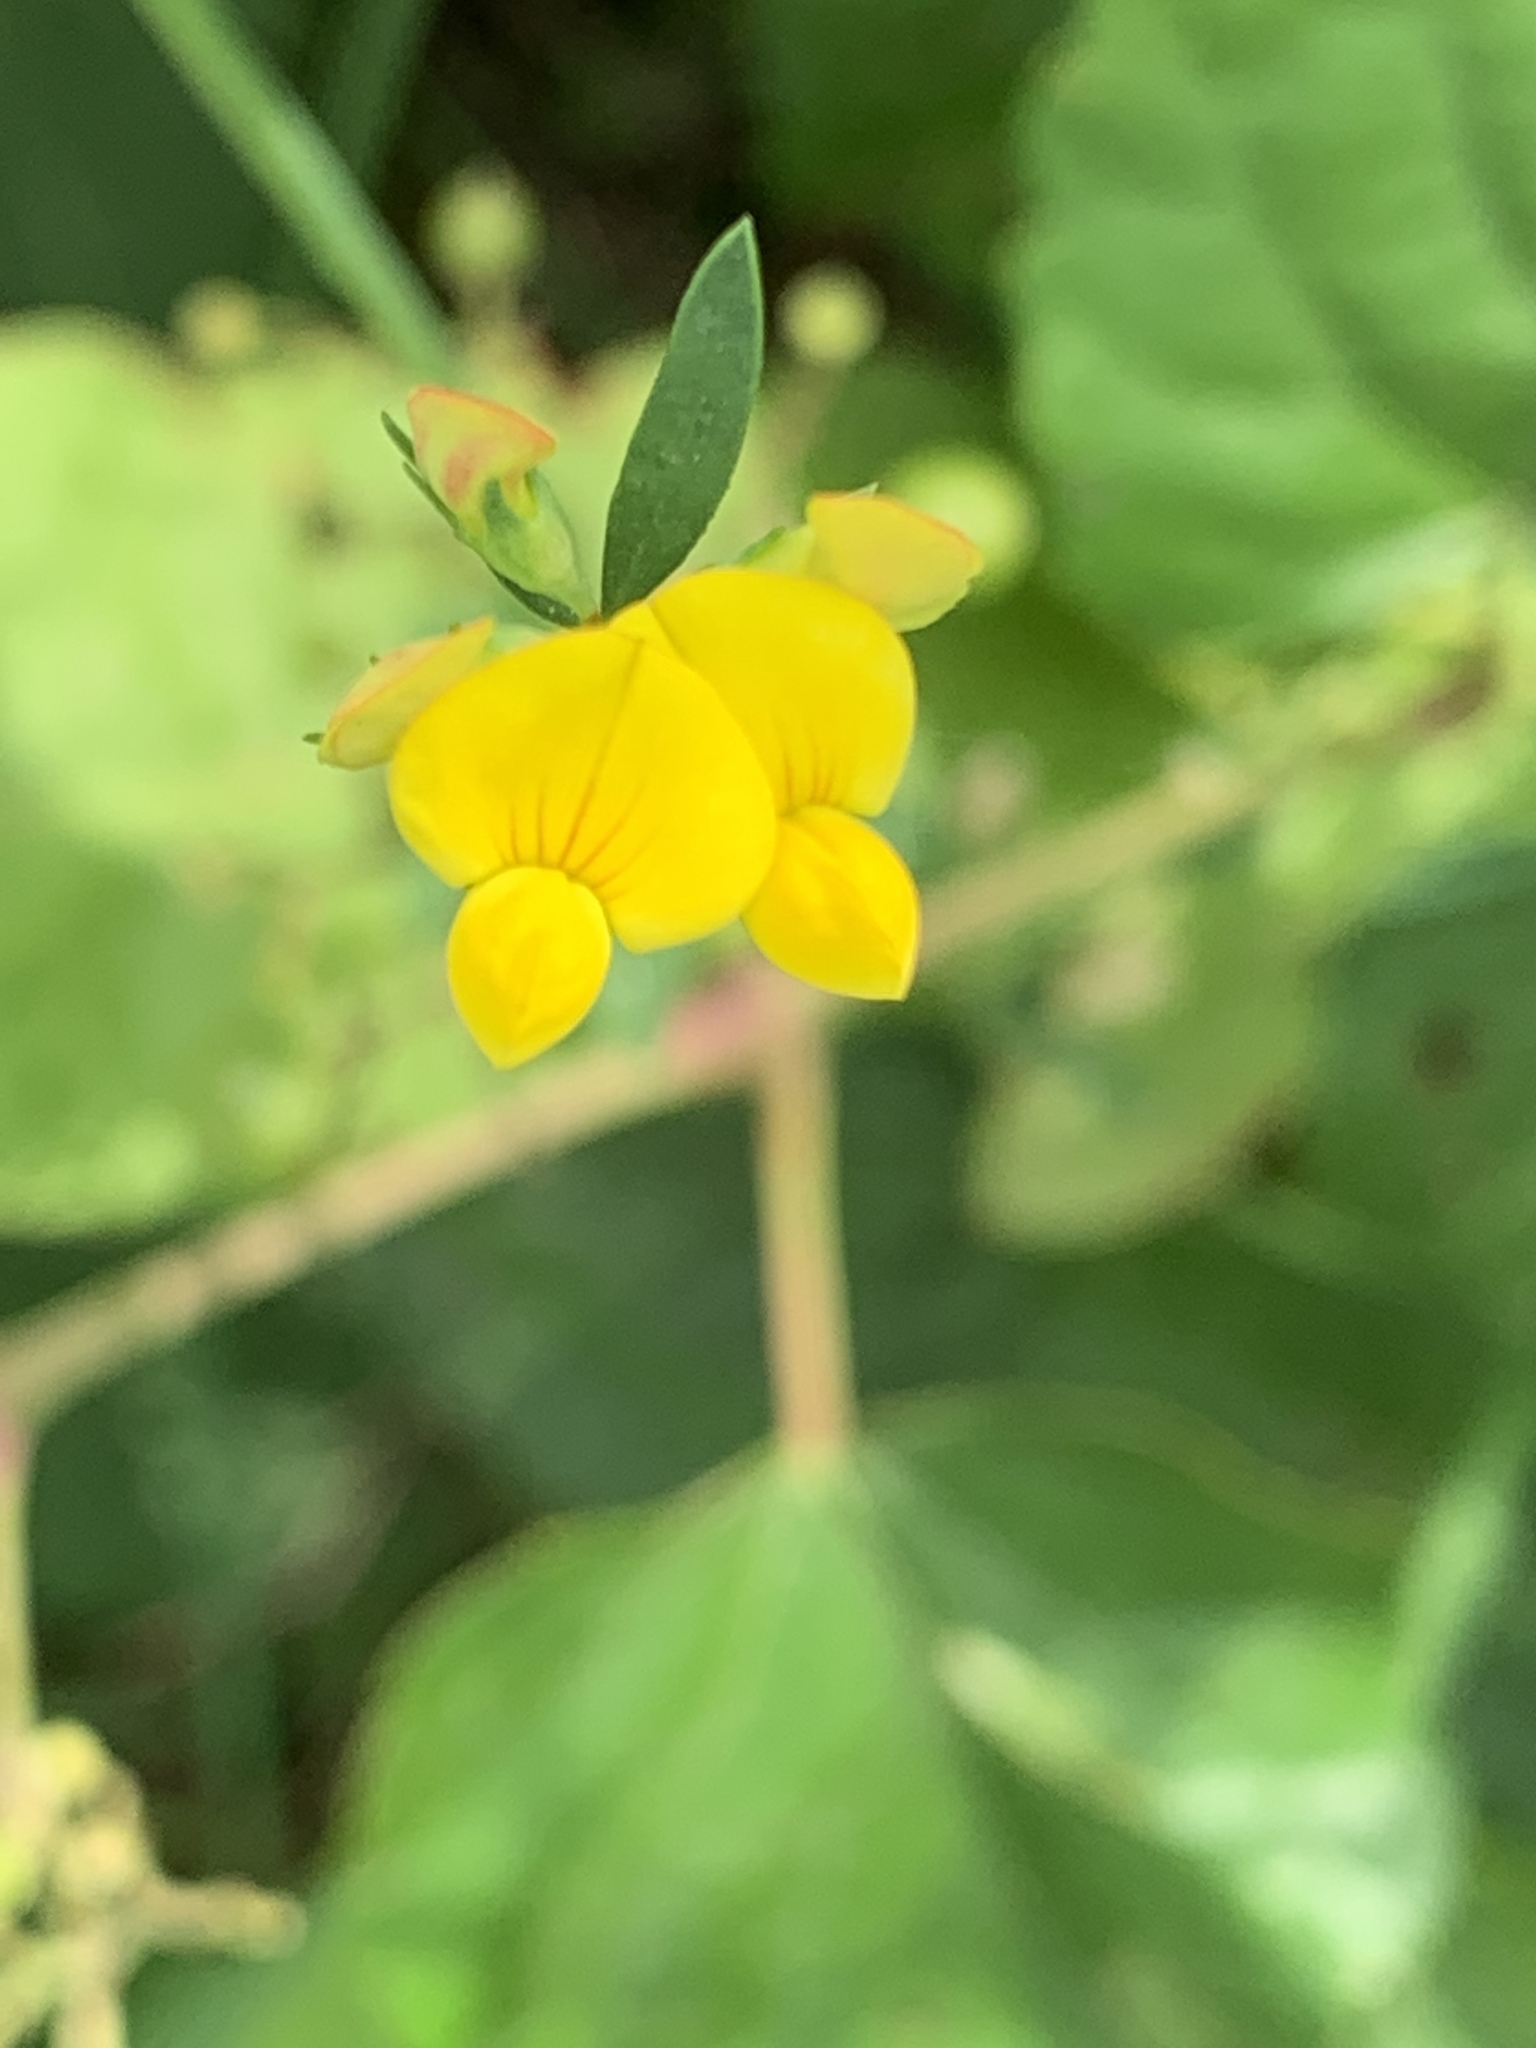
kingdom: Plantae
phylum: Tracheophyta
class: Magnoliopsida
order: Fabales
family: Fabaceae
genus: Lotus
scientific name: Lotus corniculatus
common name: Common bird's-foot-trefoil
